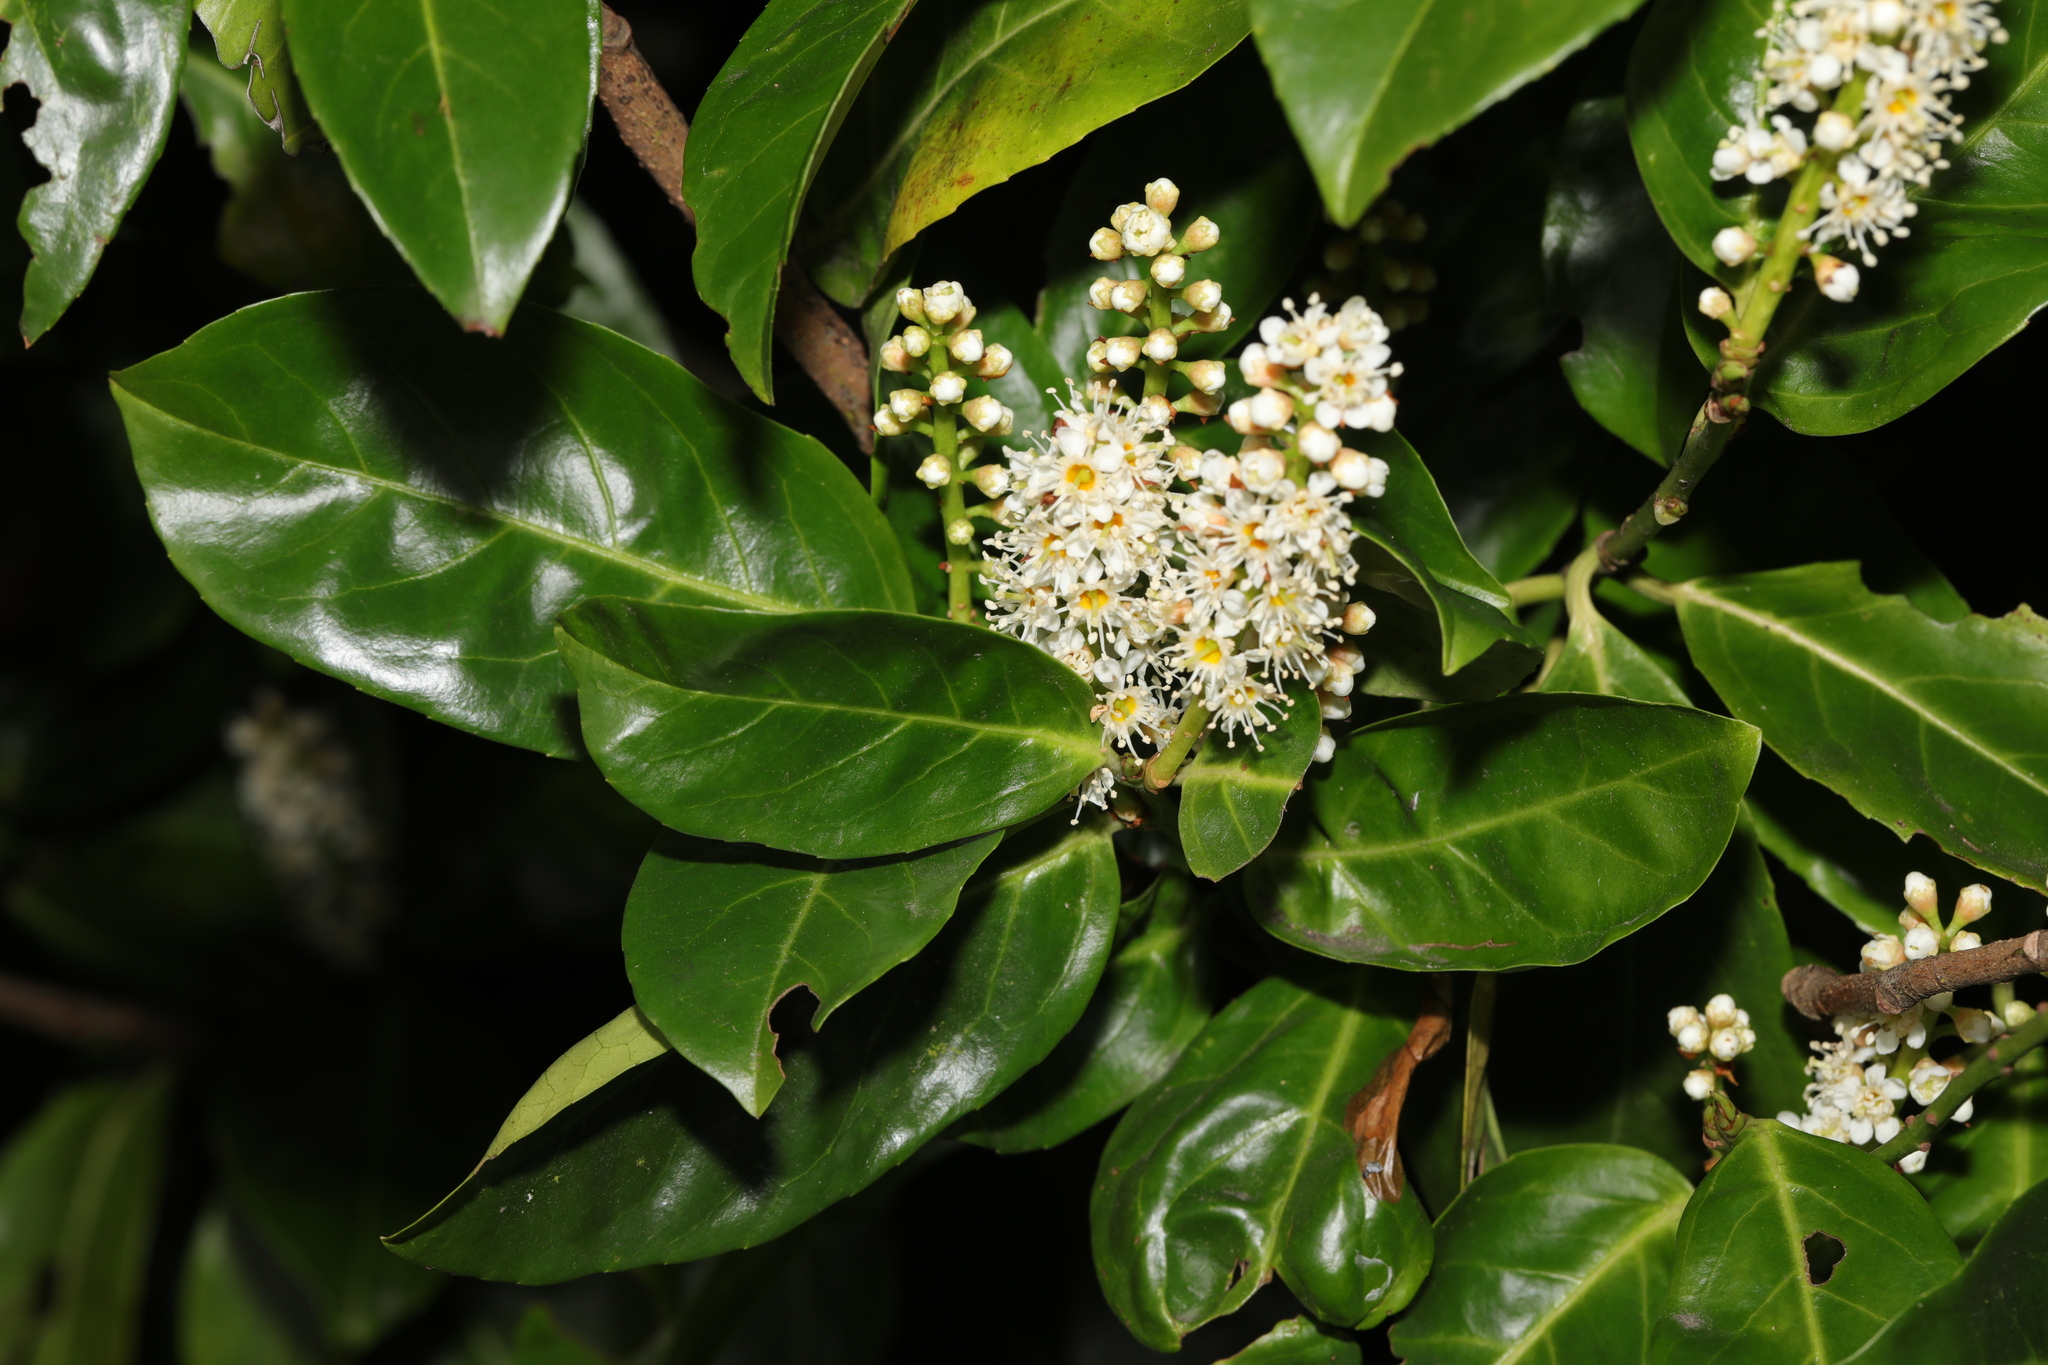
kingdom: Plantae
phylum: Tracheophyta
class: Magnoliopsida
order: Rosales
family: Rosaceae
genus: Prunus
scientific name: Prunus laurocerasus
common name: Cherry laurel
